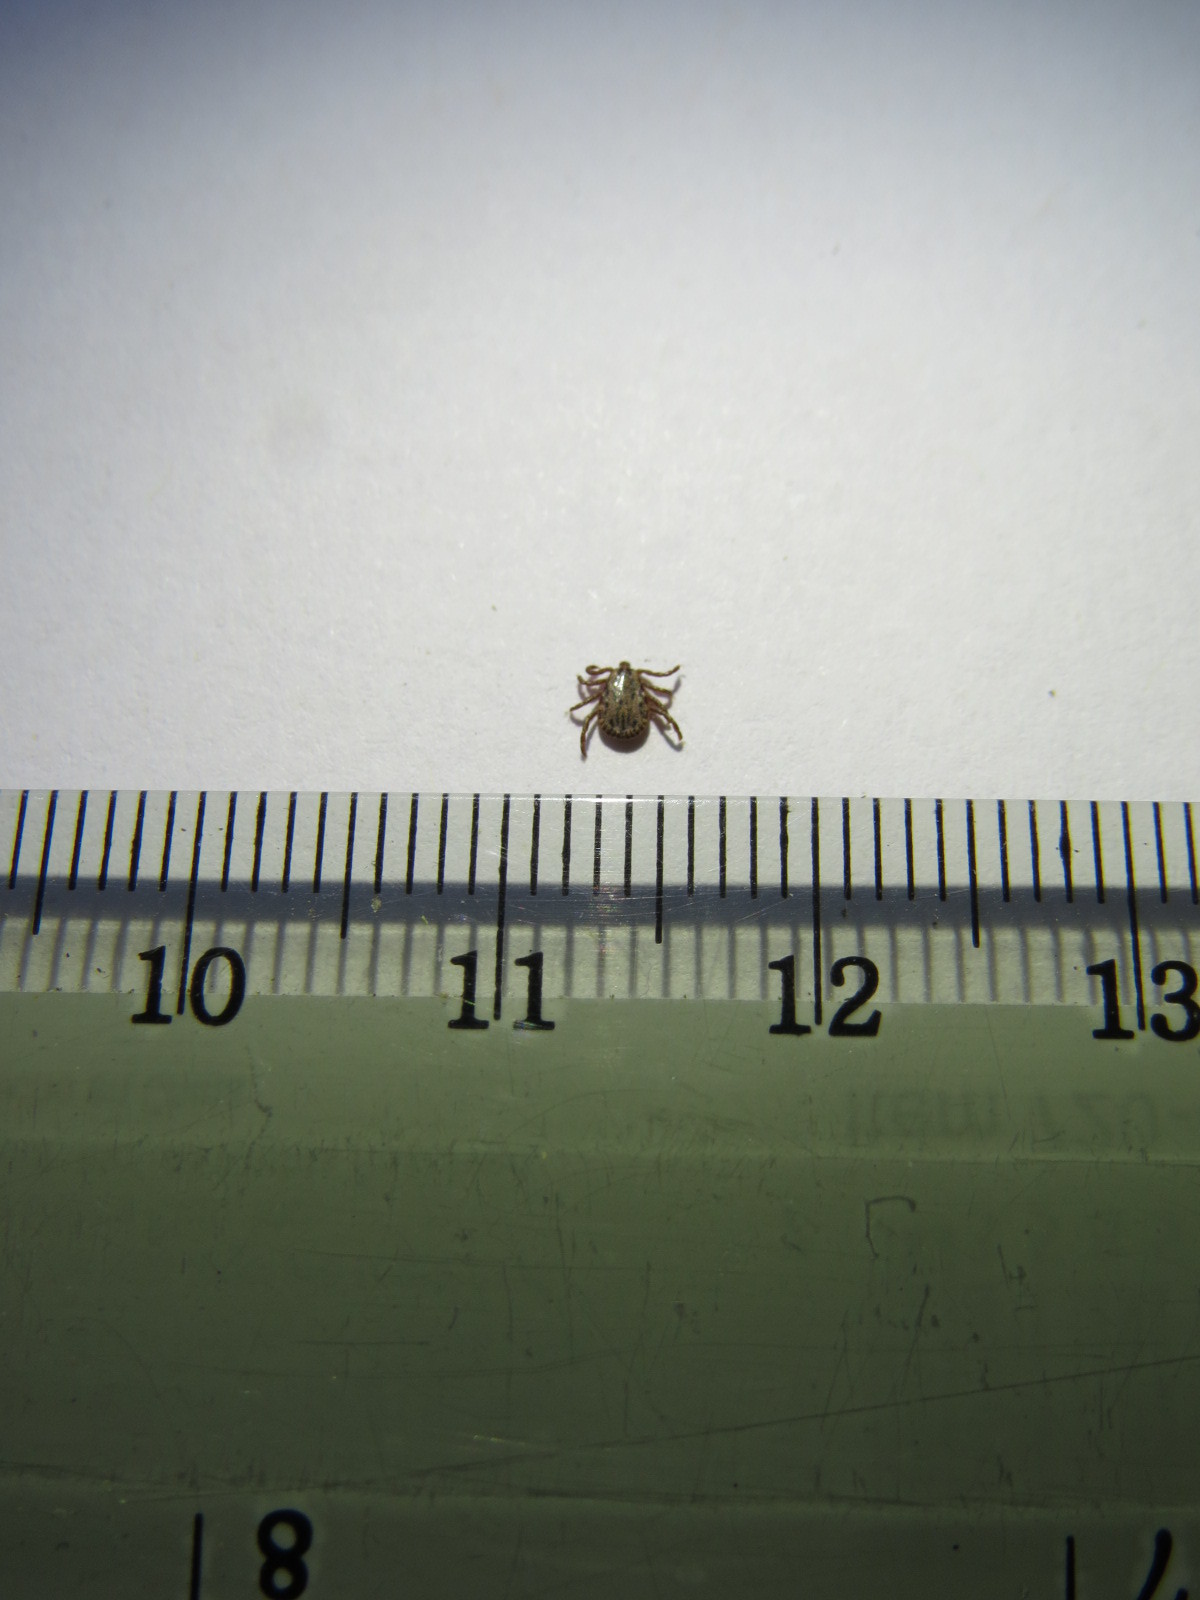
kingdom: Animalia
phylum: Arthropoda
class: Arachnida
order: Ixodida
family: Ixodidae
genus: Dermacentor
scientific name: Dermacentor occidentalis
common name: Net tick
